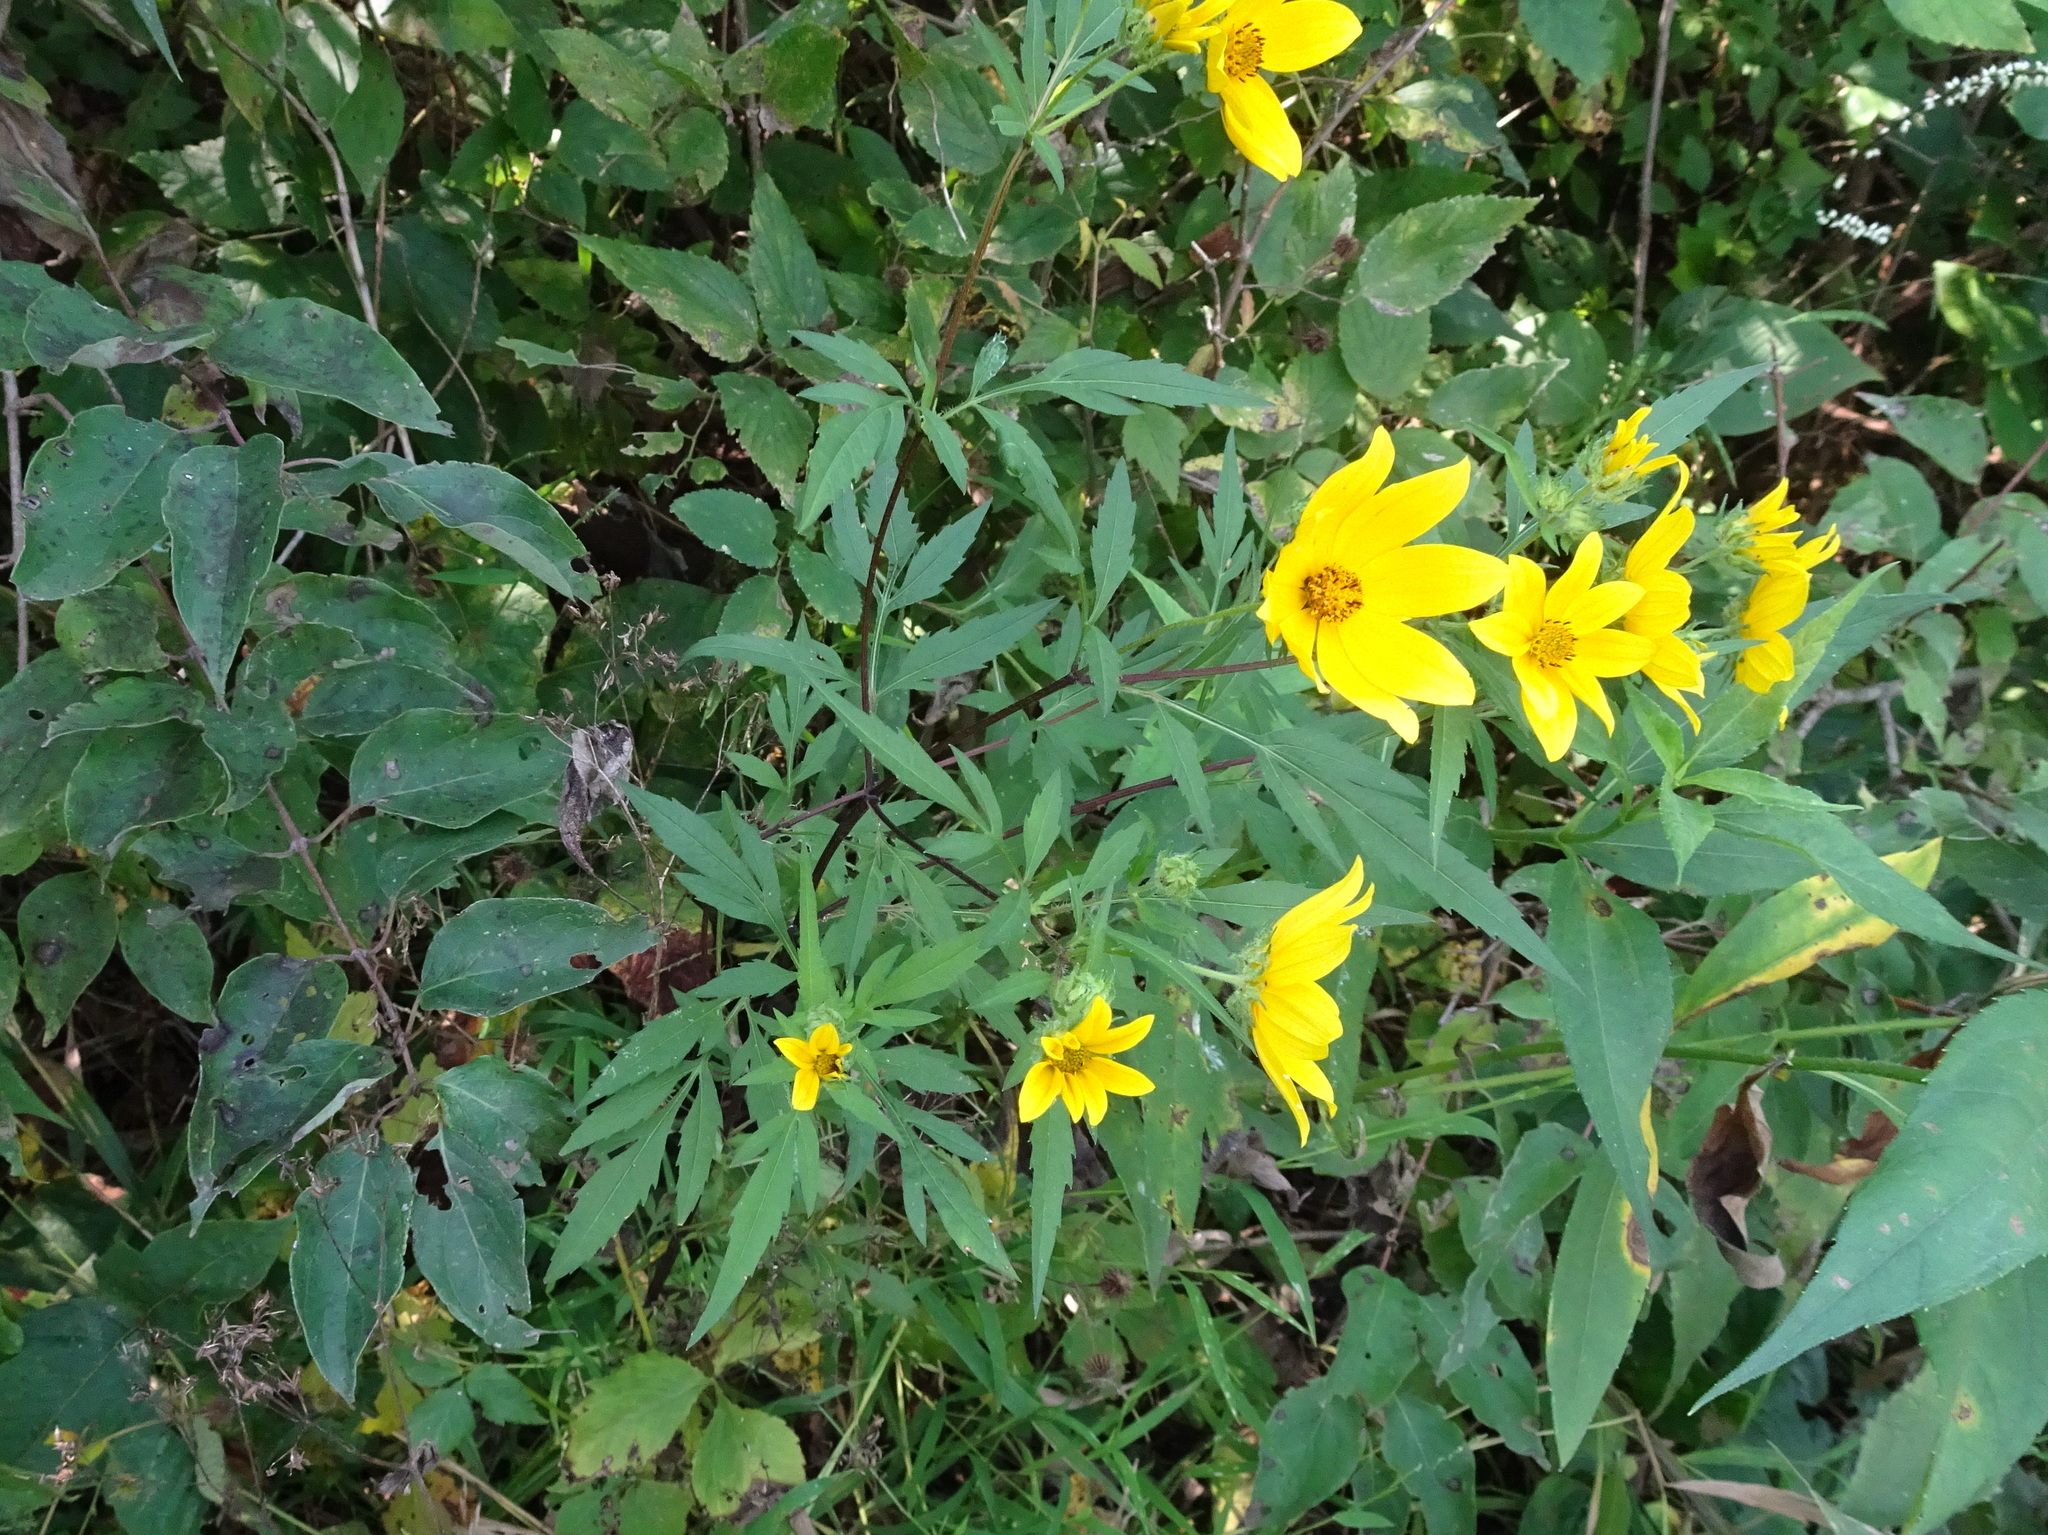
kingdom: Plantae
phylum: Tracheophyta
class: Magnoliopsida
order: Asterales
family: Asteraceae
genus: Bidens
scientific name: Bidens polylepis
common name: Awnless beggarticks
